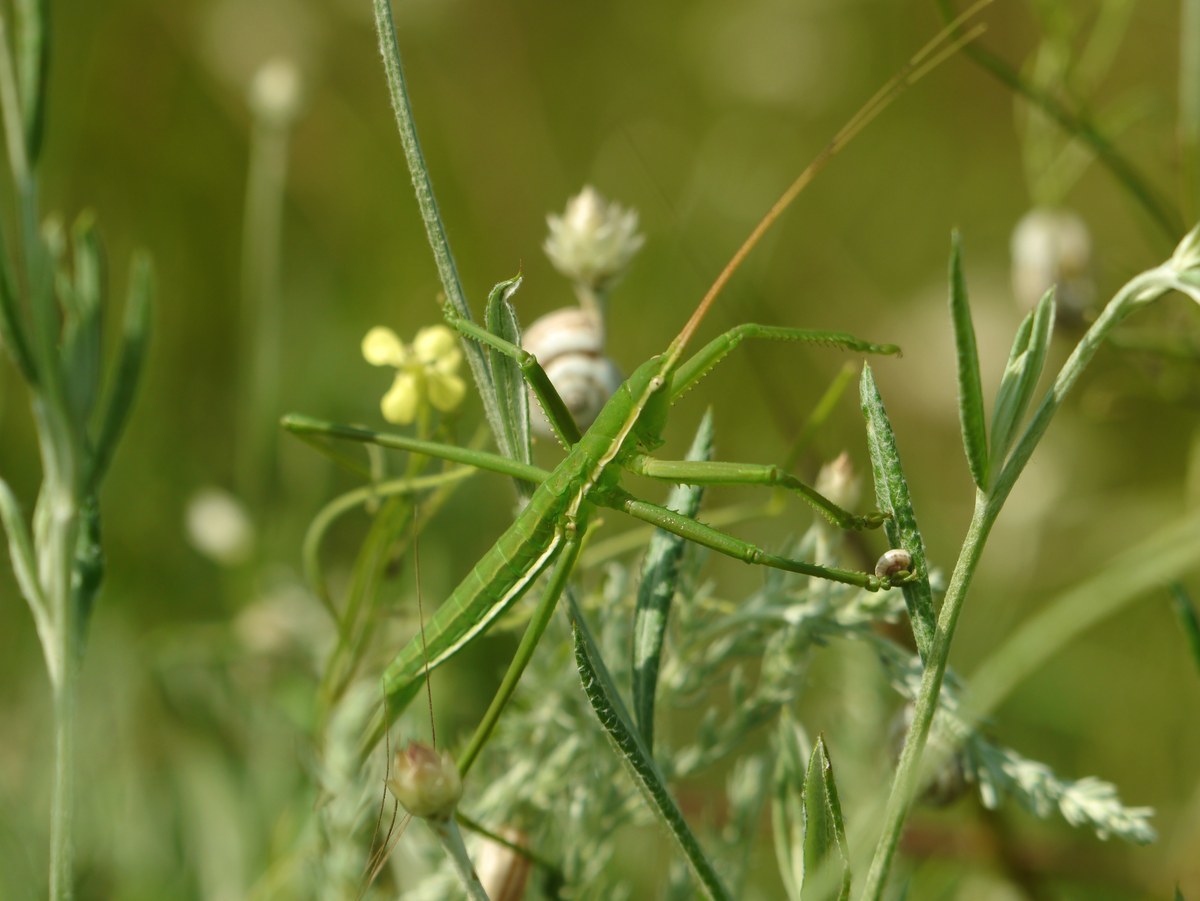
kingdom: Animalia
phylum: Arthropoda
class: Insecta
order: Orthoptera
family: Tettigoniidae
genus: Saga
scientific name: Saga pedo
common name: Common predatory bush-cricket
